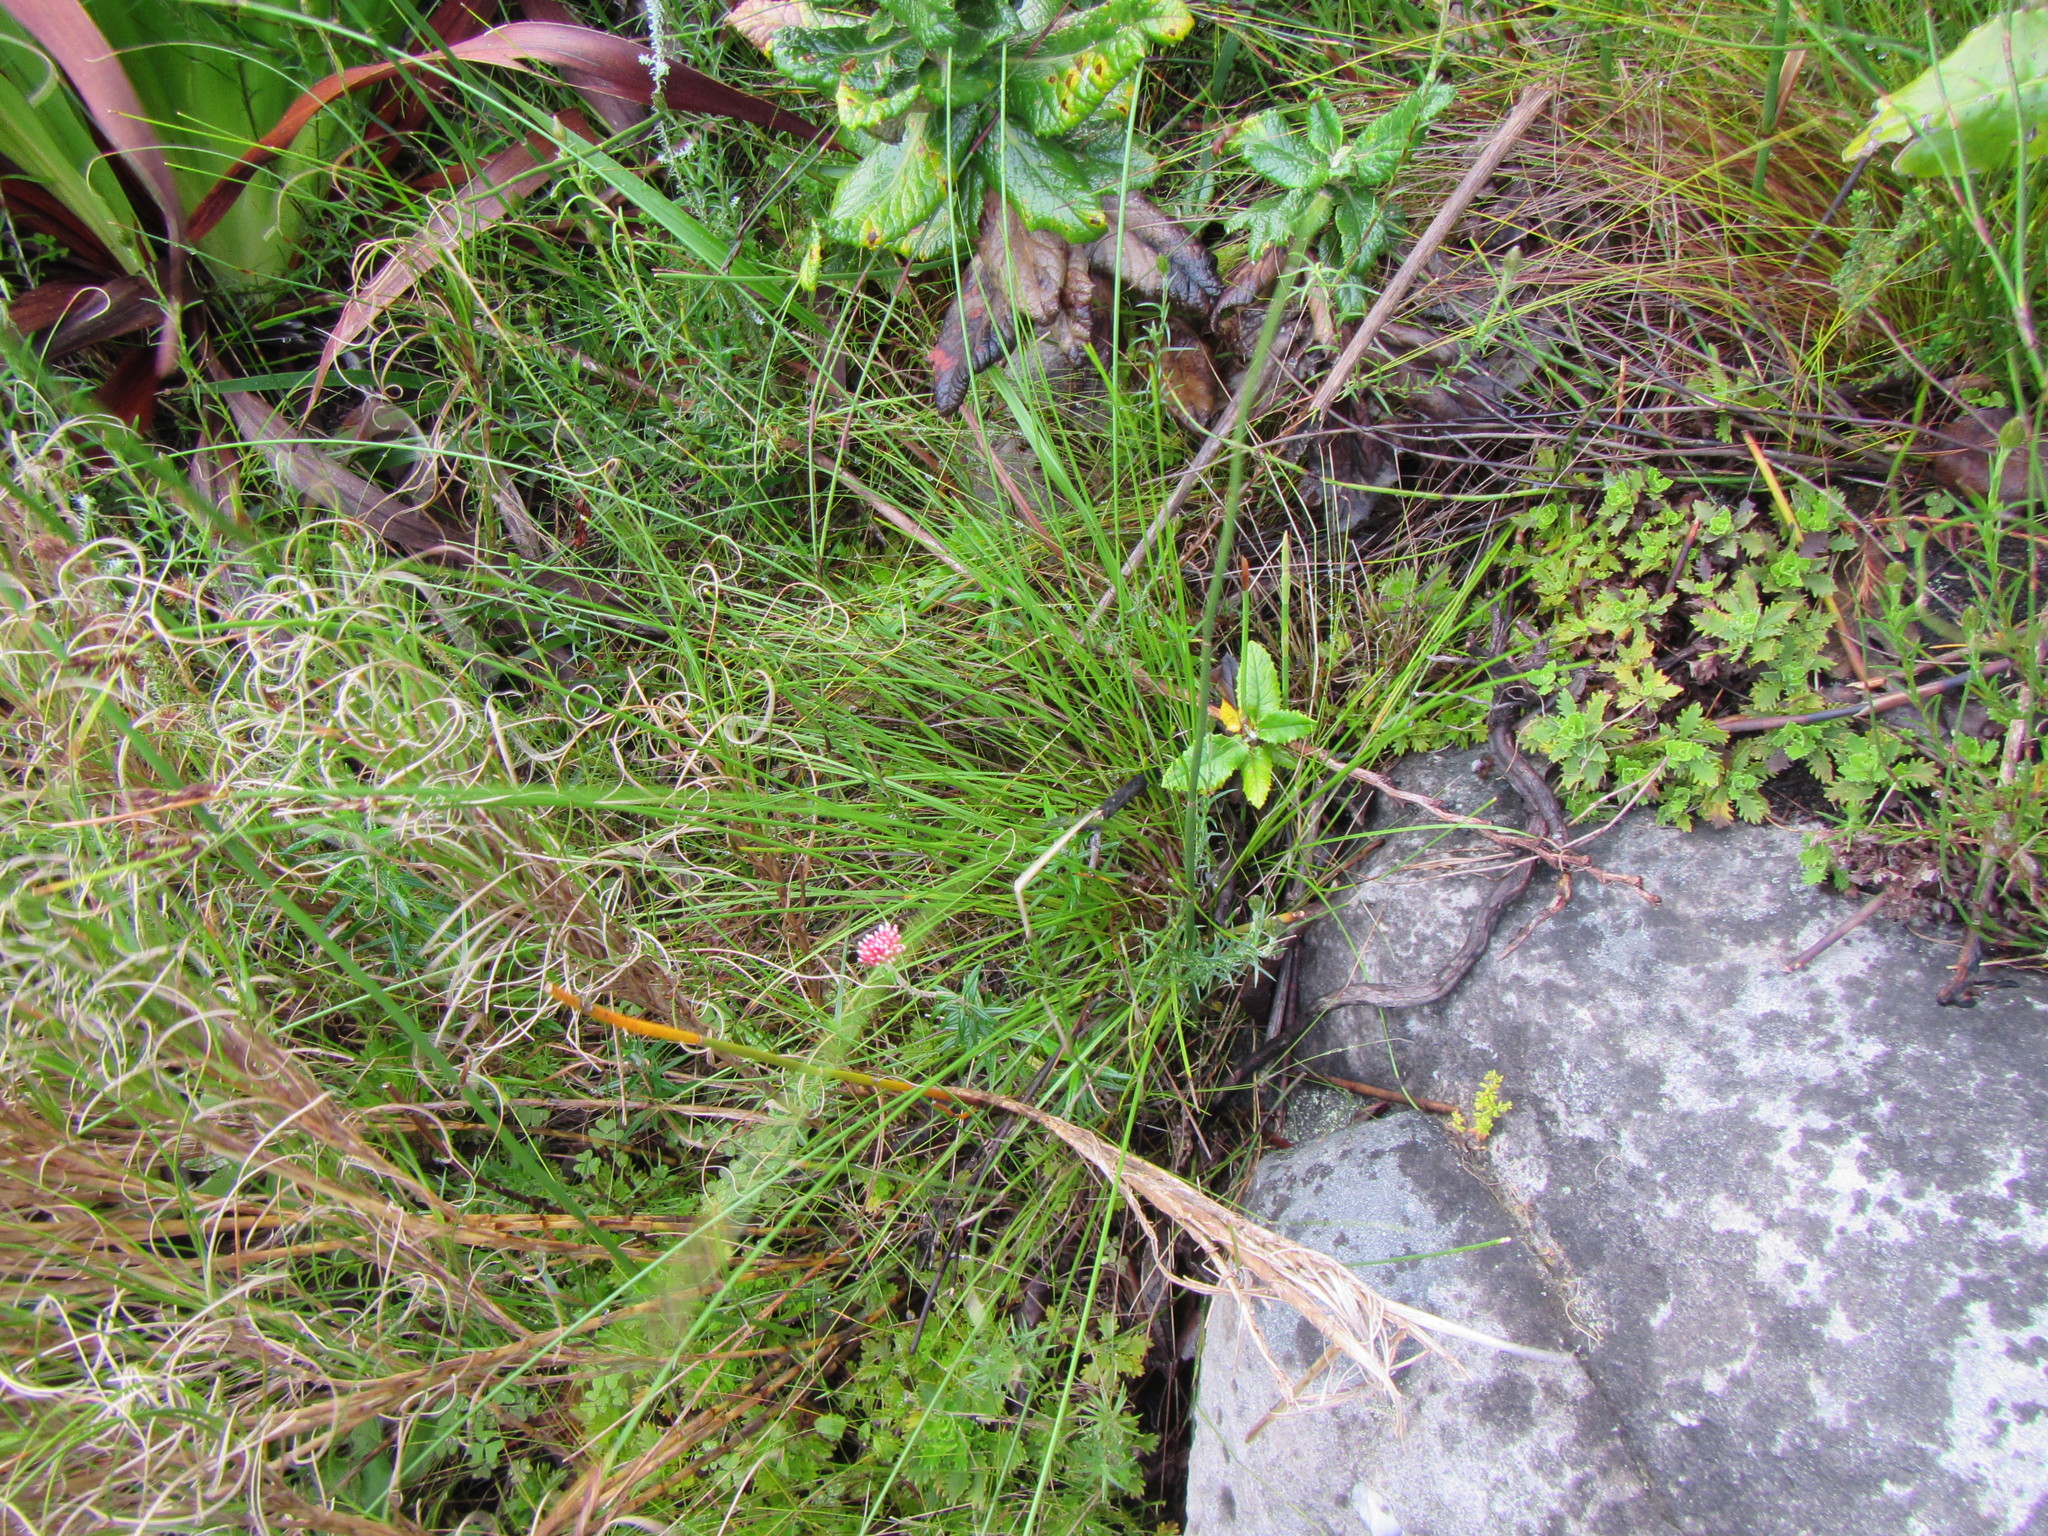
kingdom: Plantae
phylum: Tracheophyta
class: Liliopsida
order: Poales
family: Cyperaceae
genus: Schoenus
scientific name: Schoenus purpurascens
